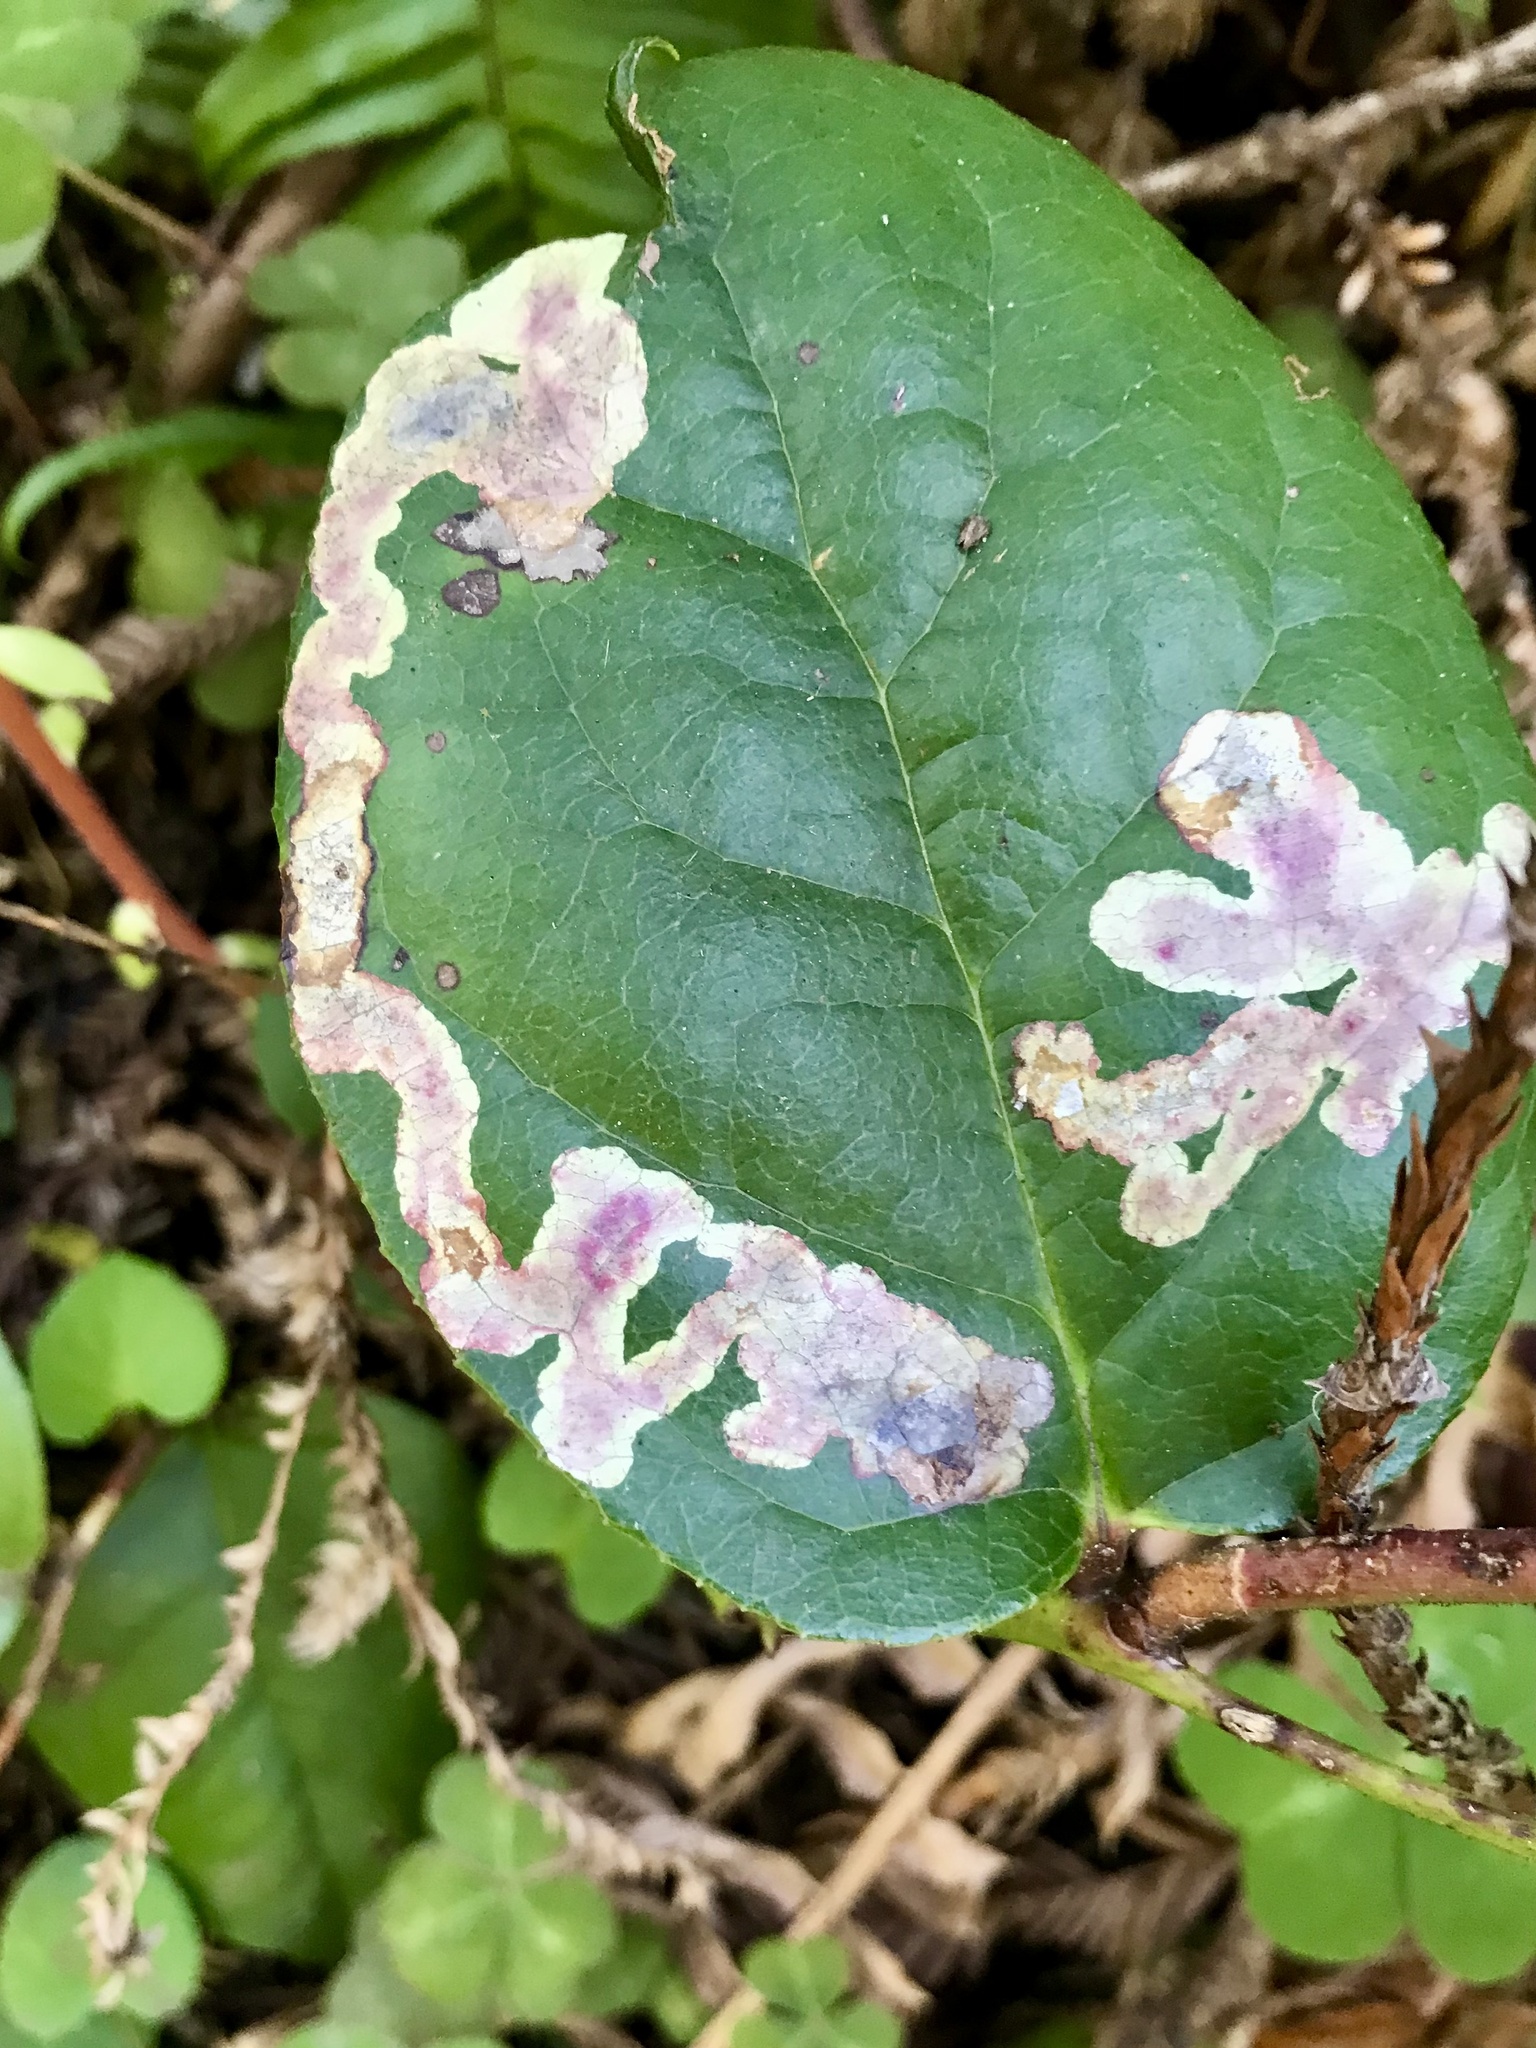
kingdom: Animalia
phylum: Arthropoda
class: Insecta
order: Lepidoptera
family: Gracillariidae
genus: Cameraria
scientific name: Cameraria gaultheriella
